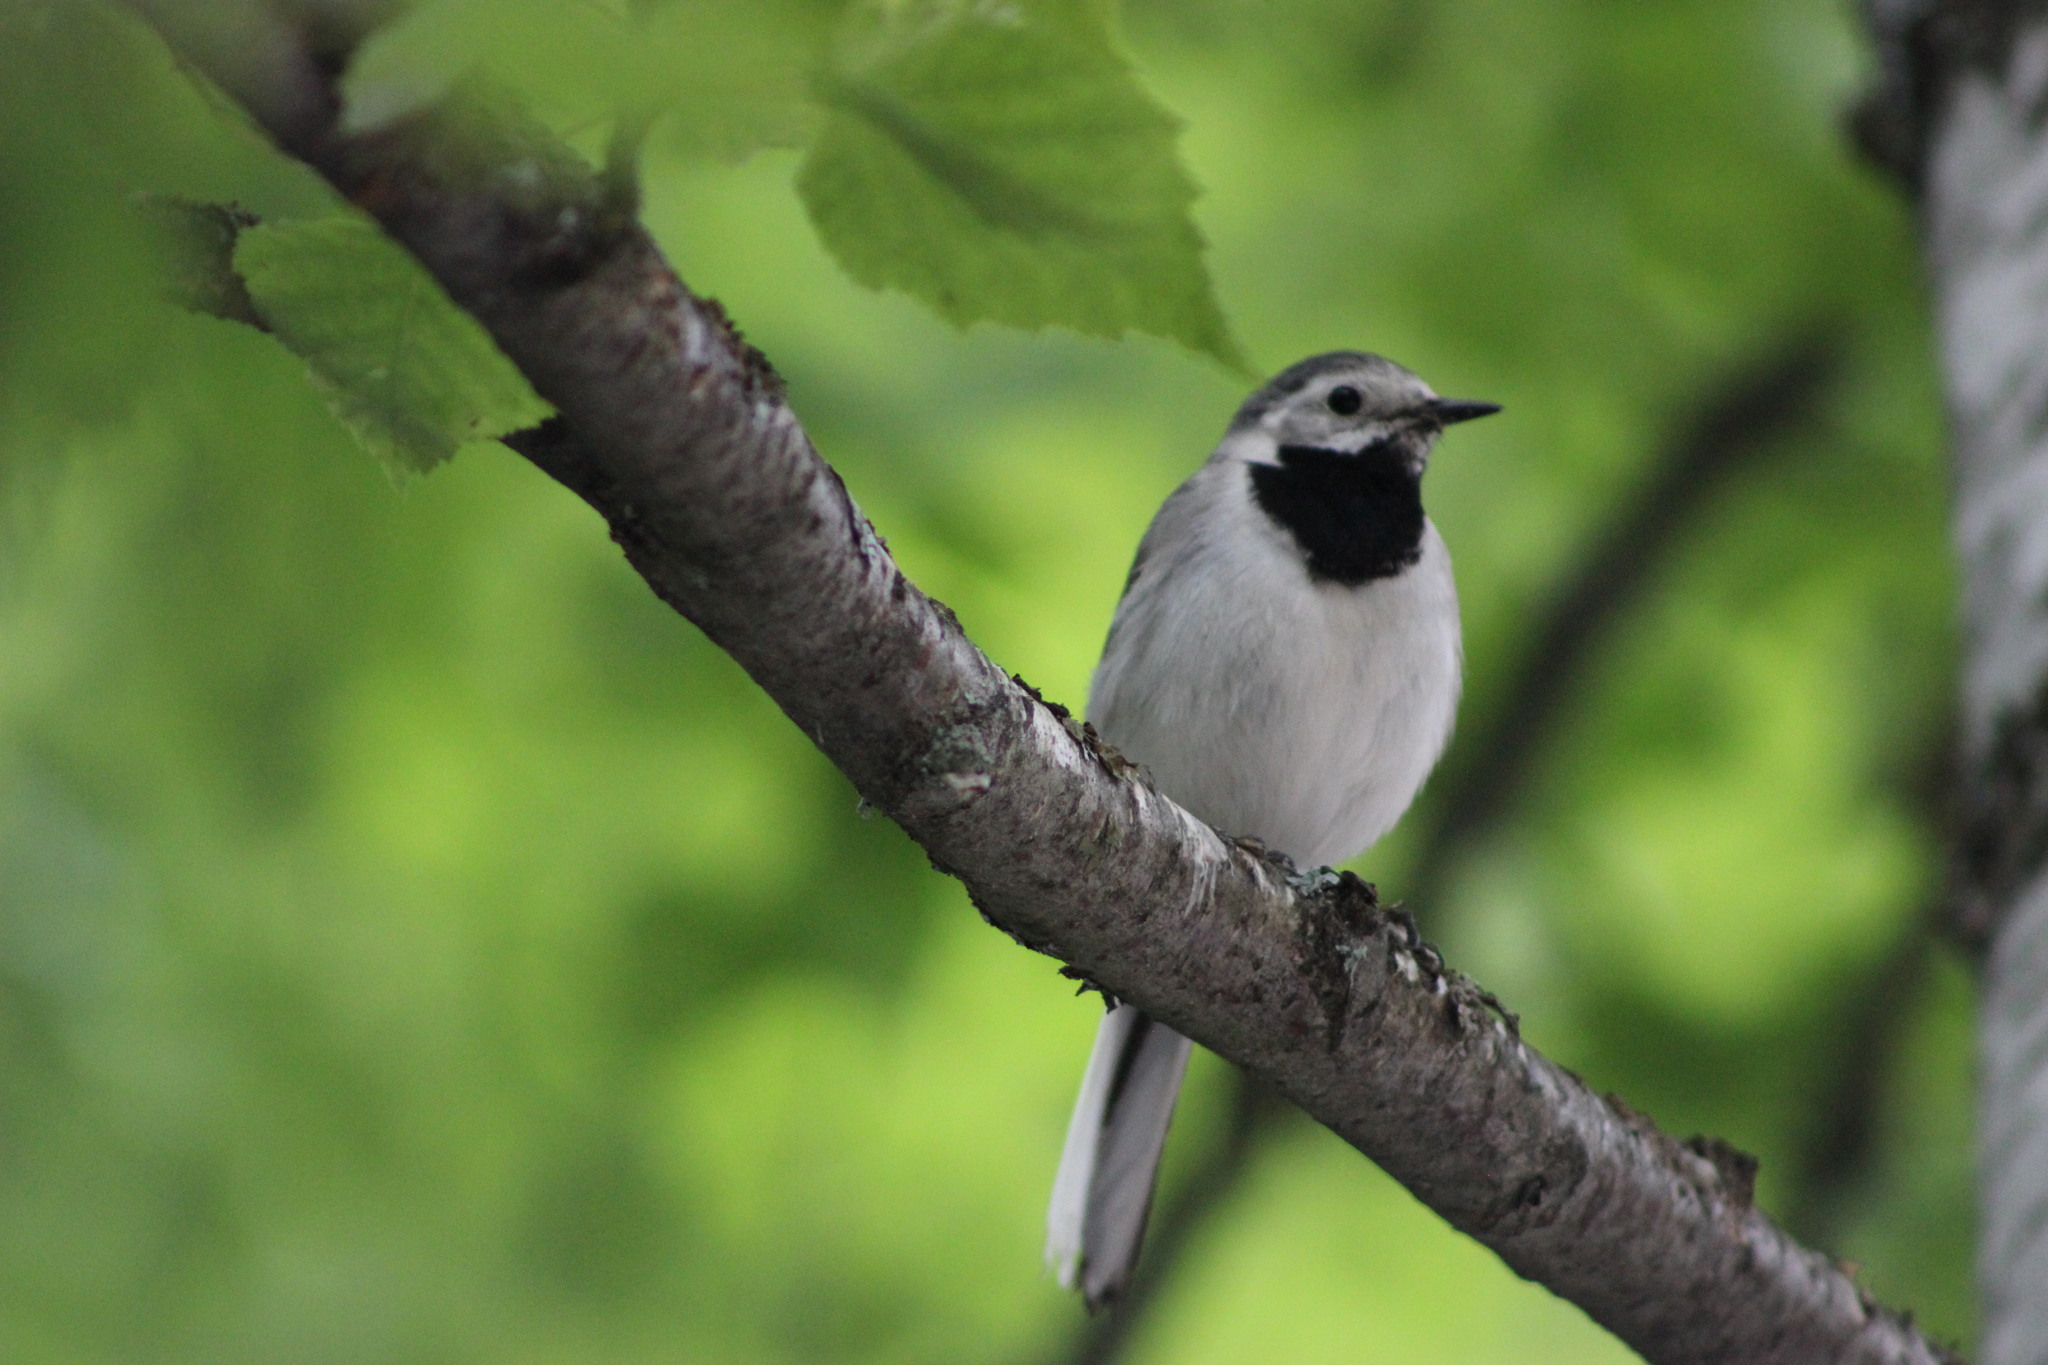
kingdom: Animalia
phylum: Chordata
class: Aves
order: Passeriformes
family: Motacillidae
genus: Motacilla
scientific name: Motacilla alba
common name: White wagtail
